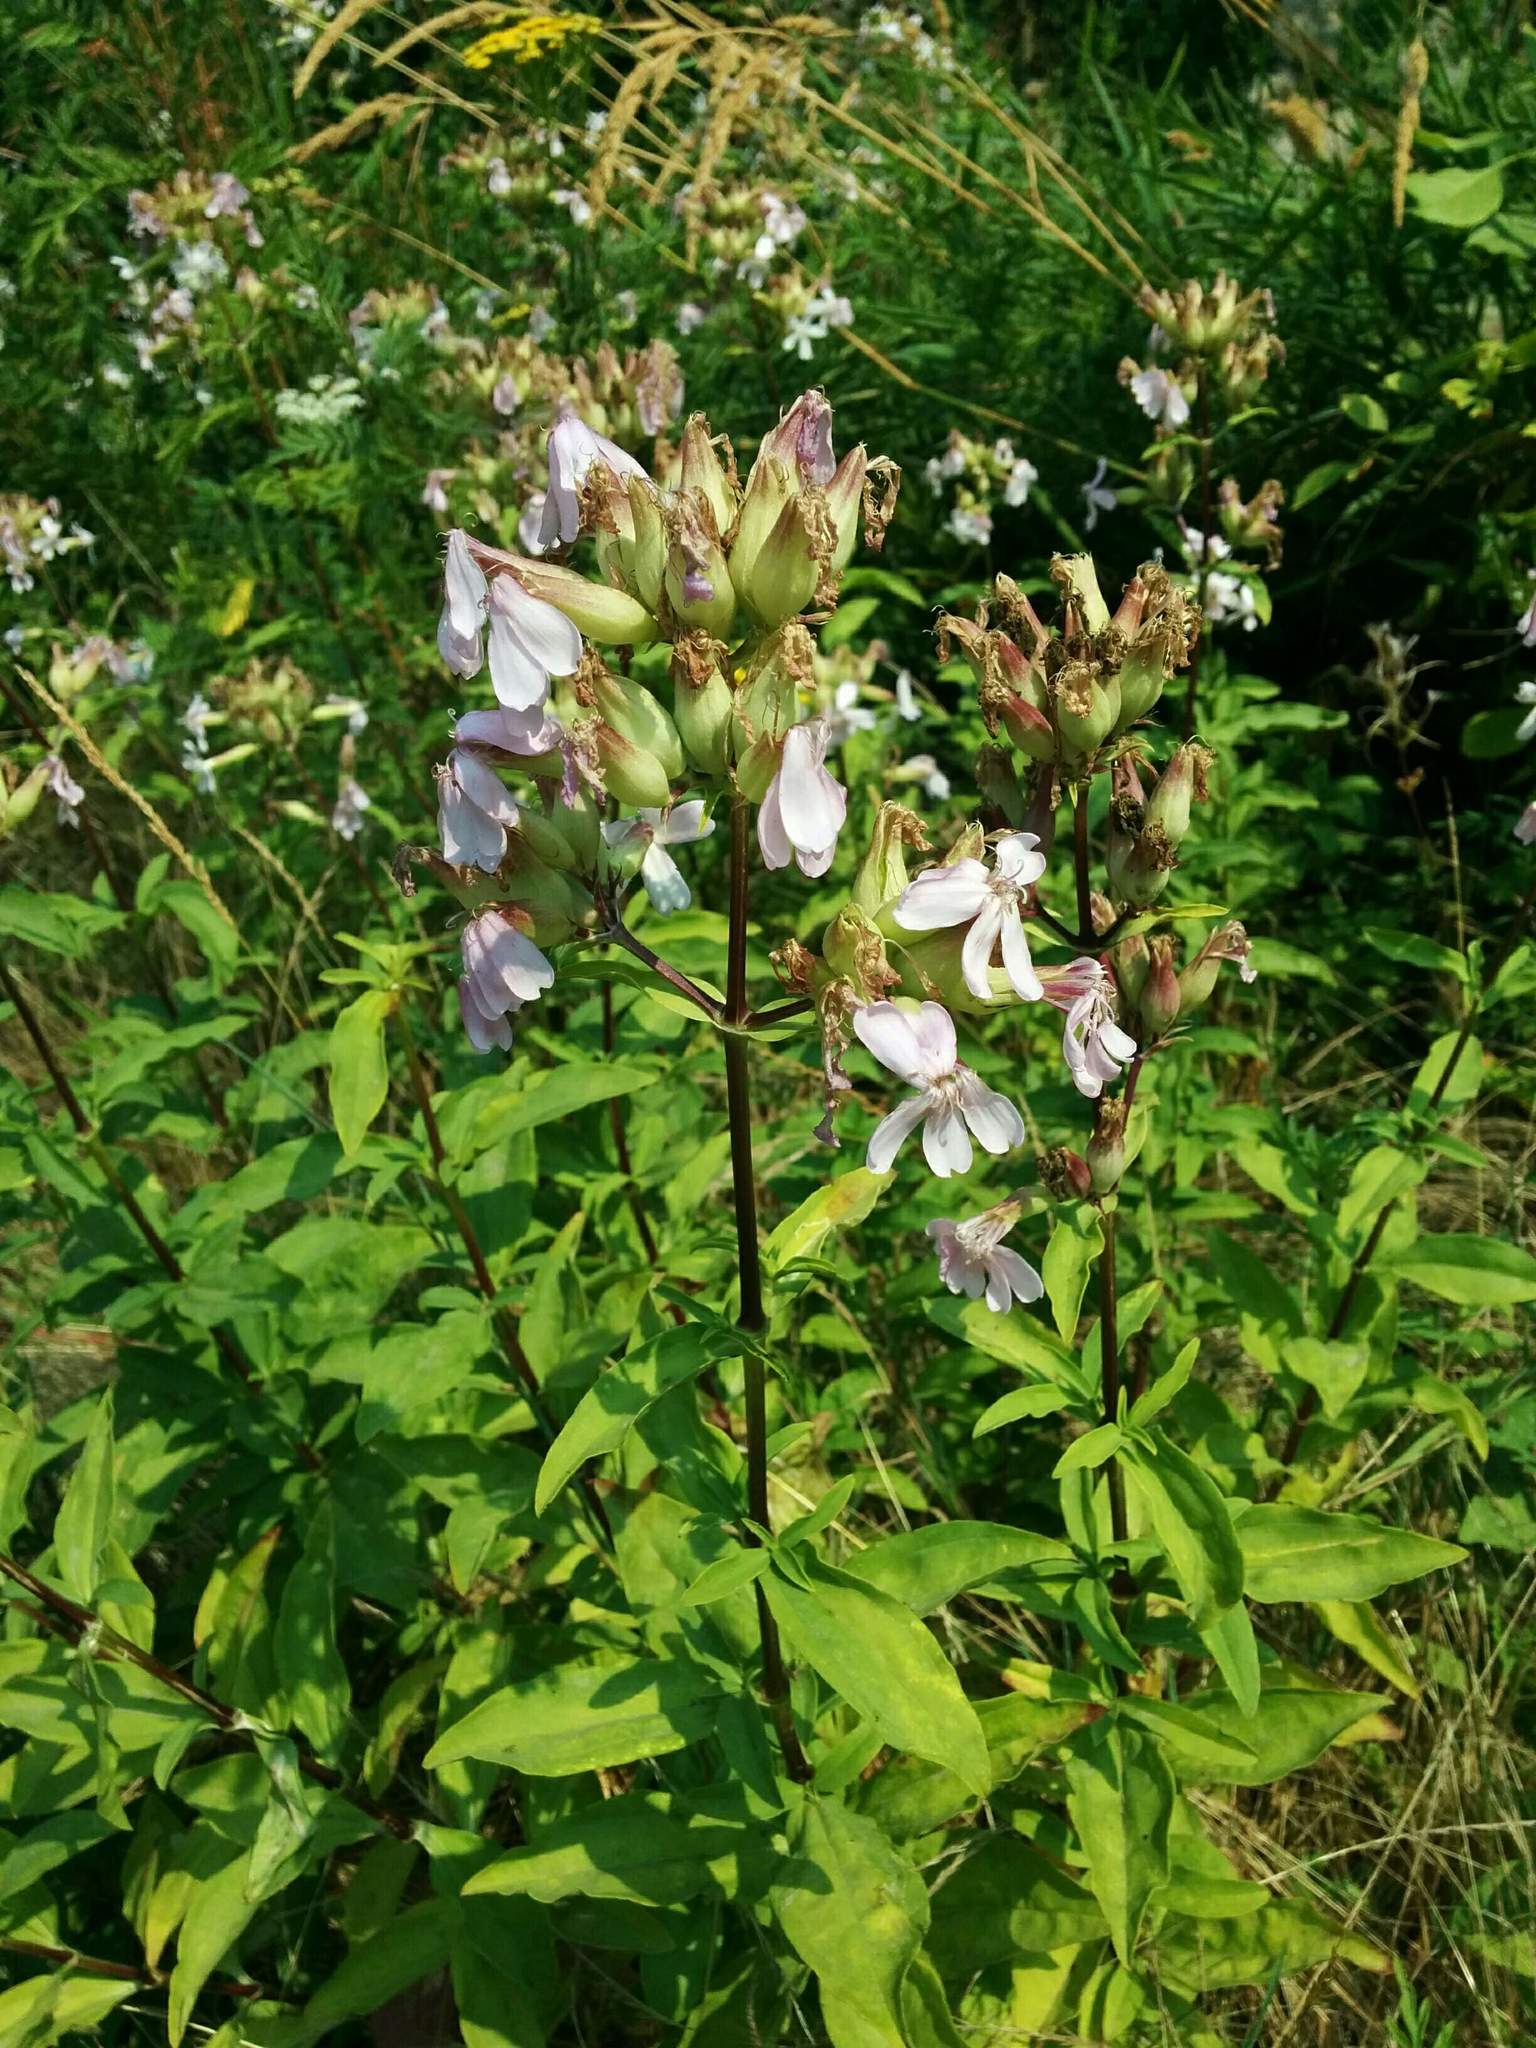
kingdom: Plantae
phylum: Tracheophyta
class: Magnoliopsida
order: Caryophyllales
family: Caryophyllaceae
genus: Saponaria
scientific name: Saponaria officinalis
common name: Soapwort
